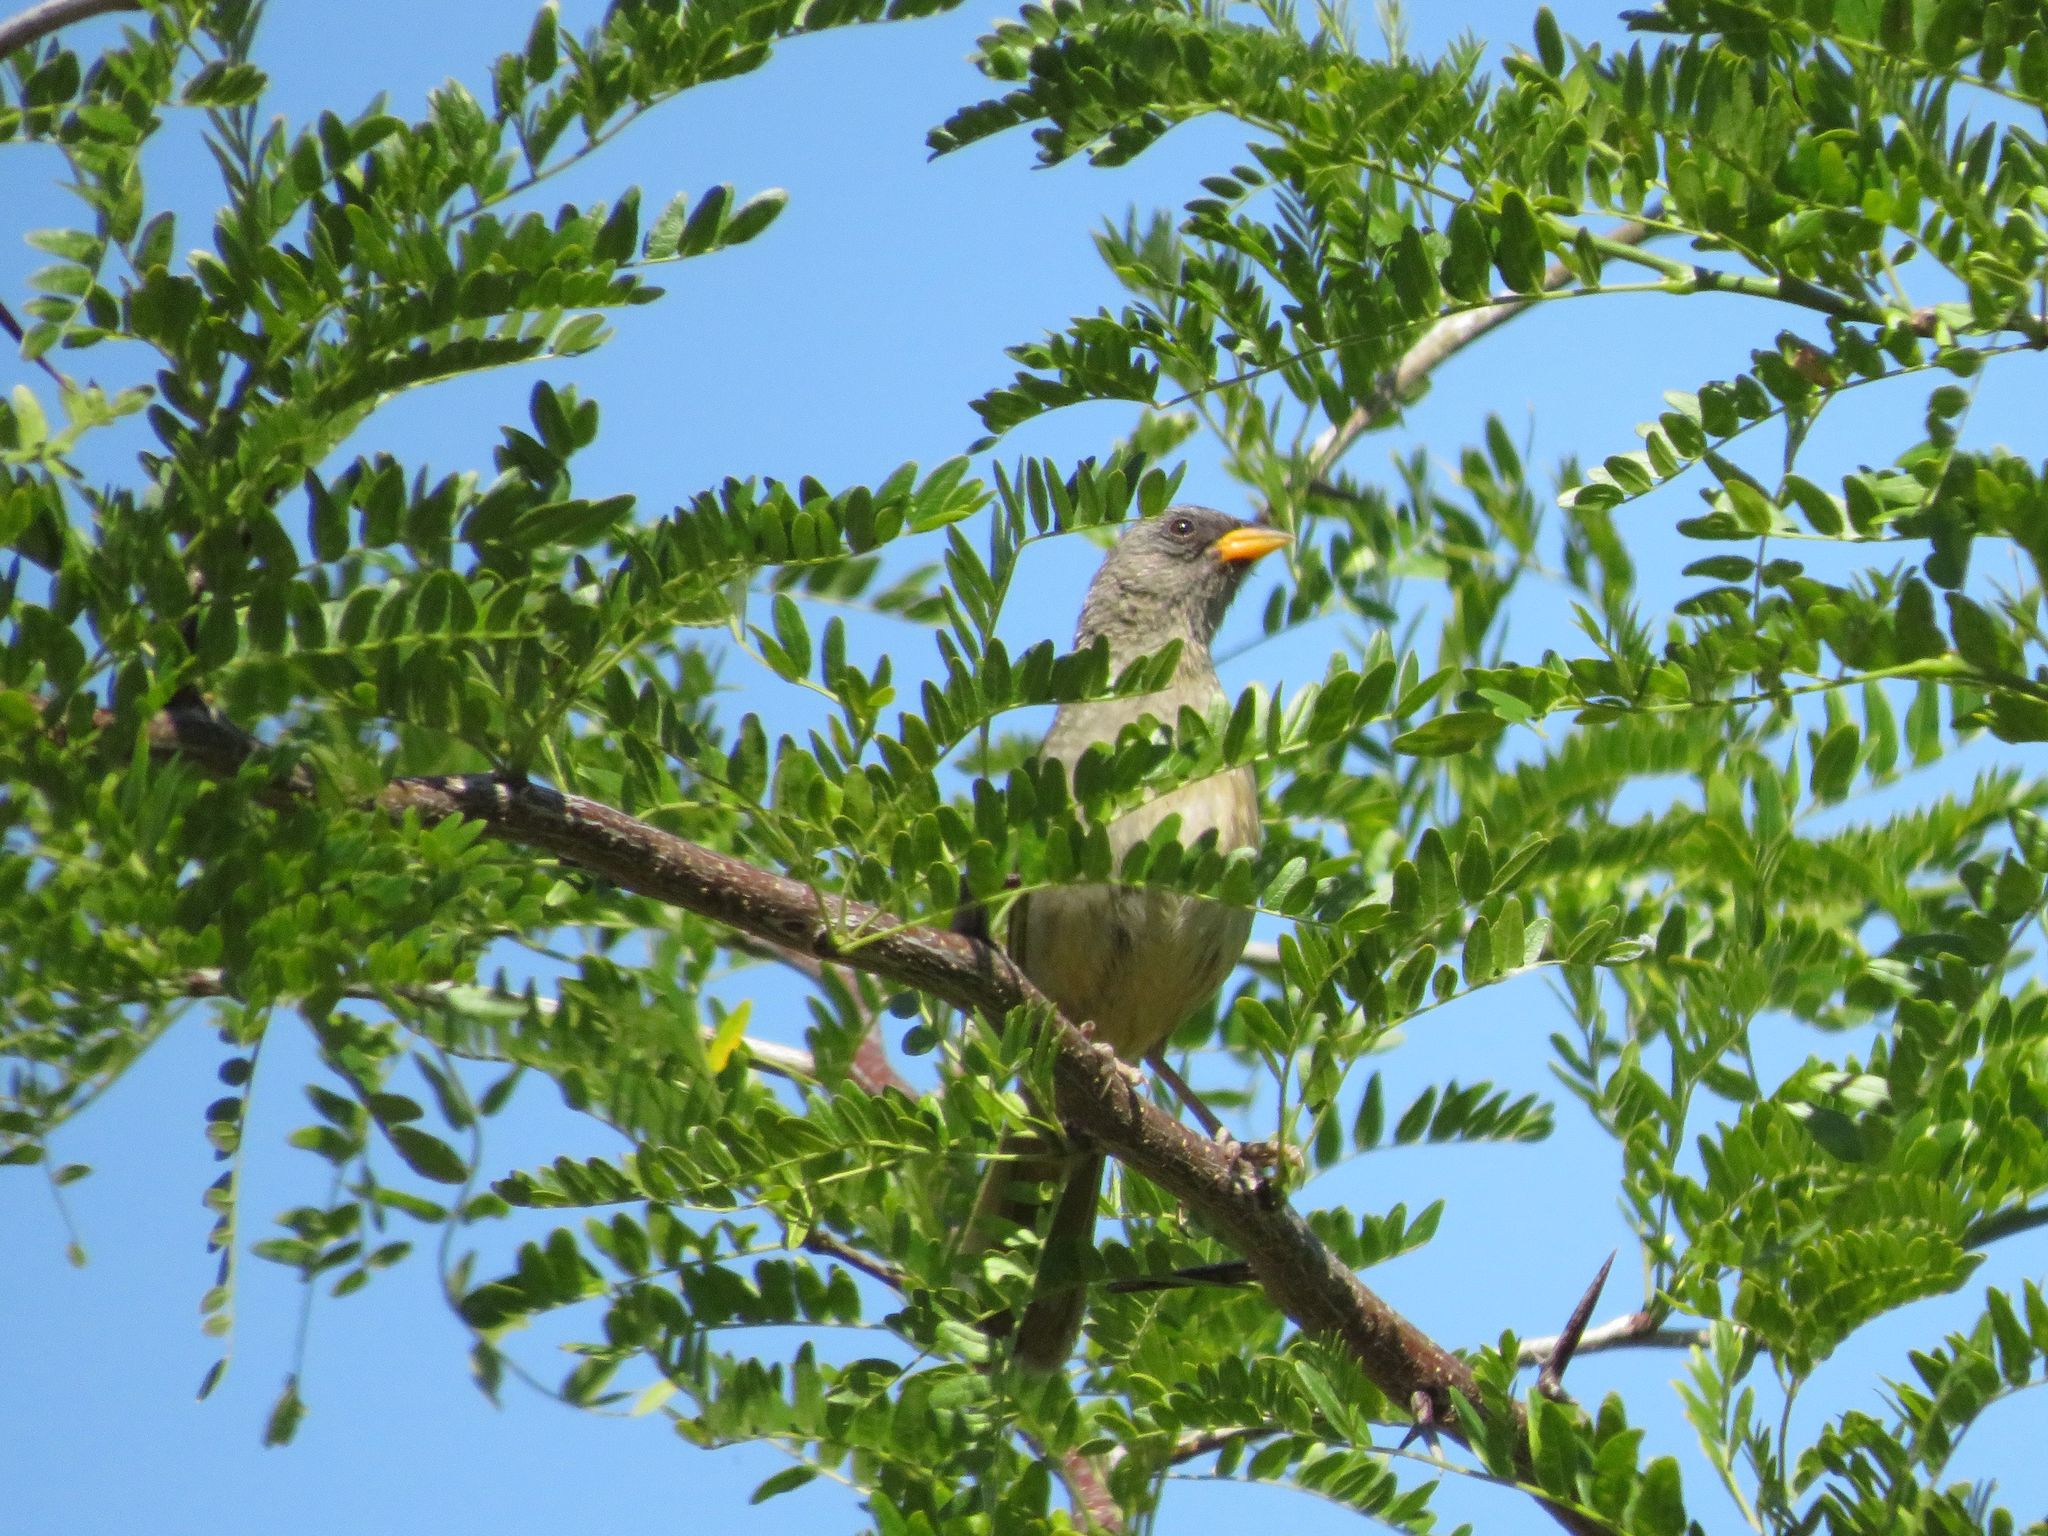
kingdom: Animalia
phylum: Chordata
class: Aves
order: Passeriformes
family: Thraupidae
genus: Embernagra
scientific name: Embernagra platensis
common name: Pampa finch
